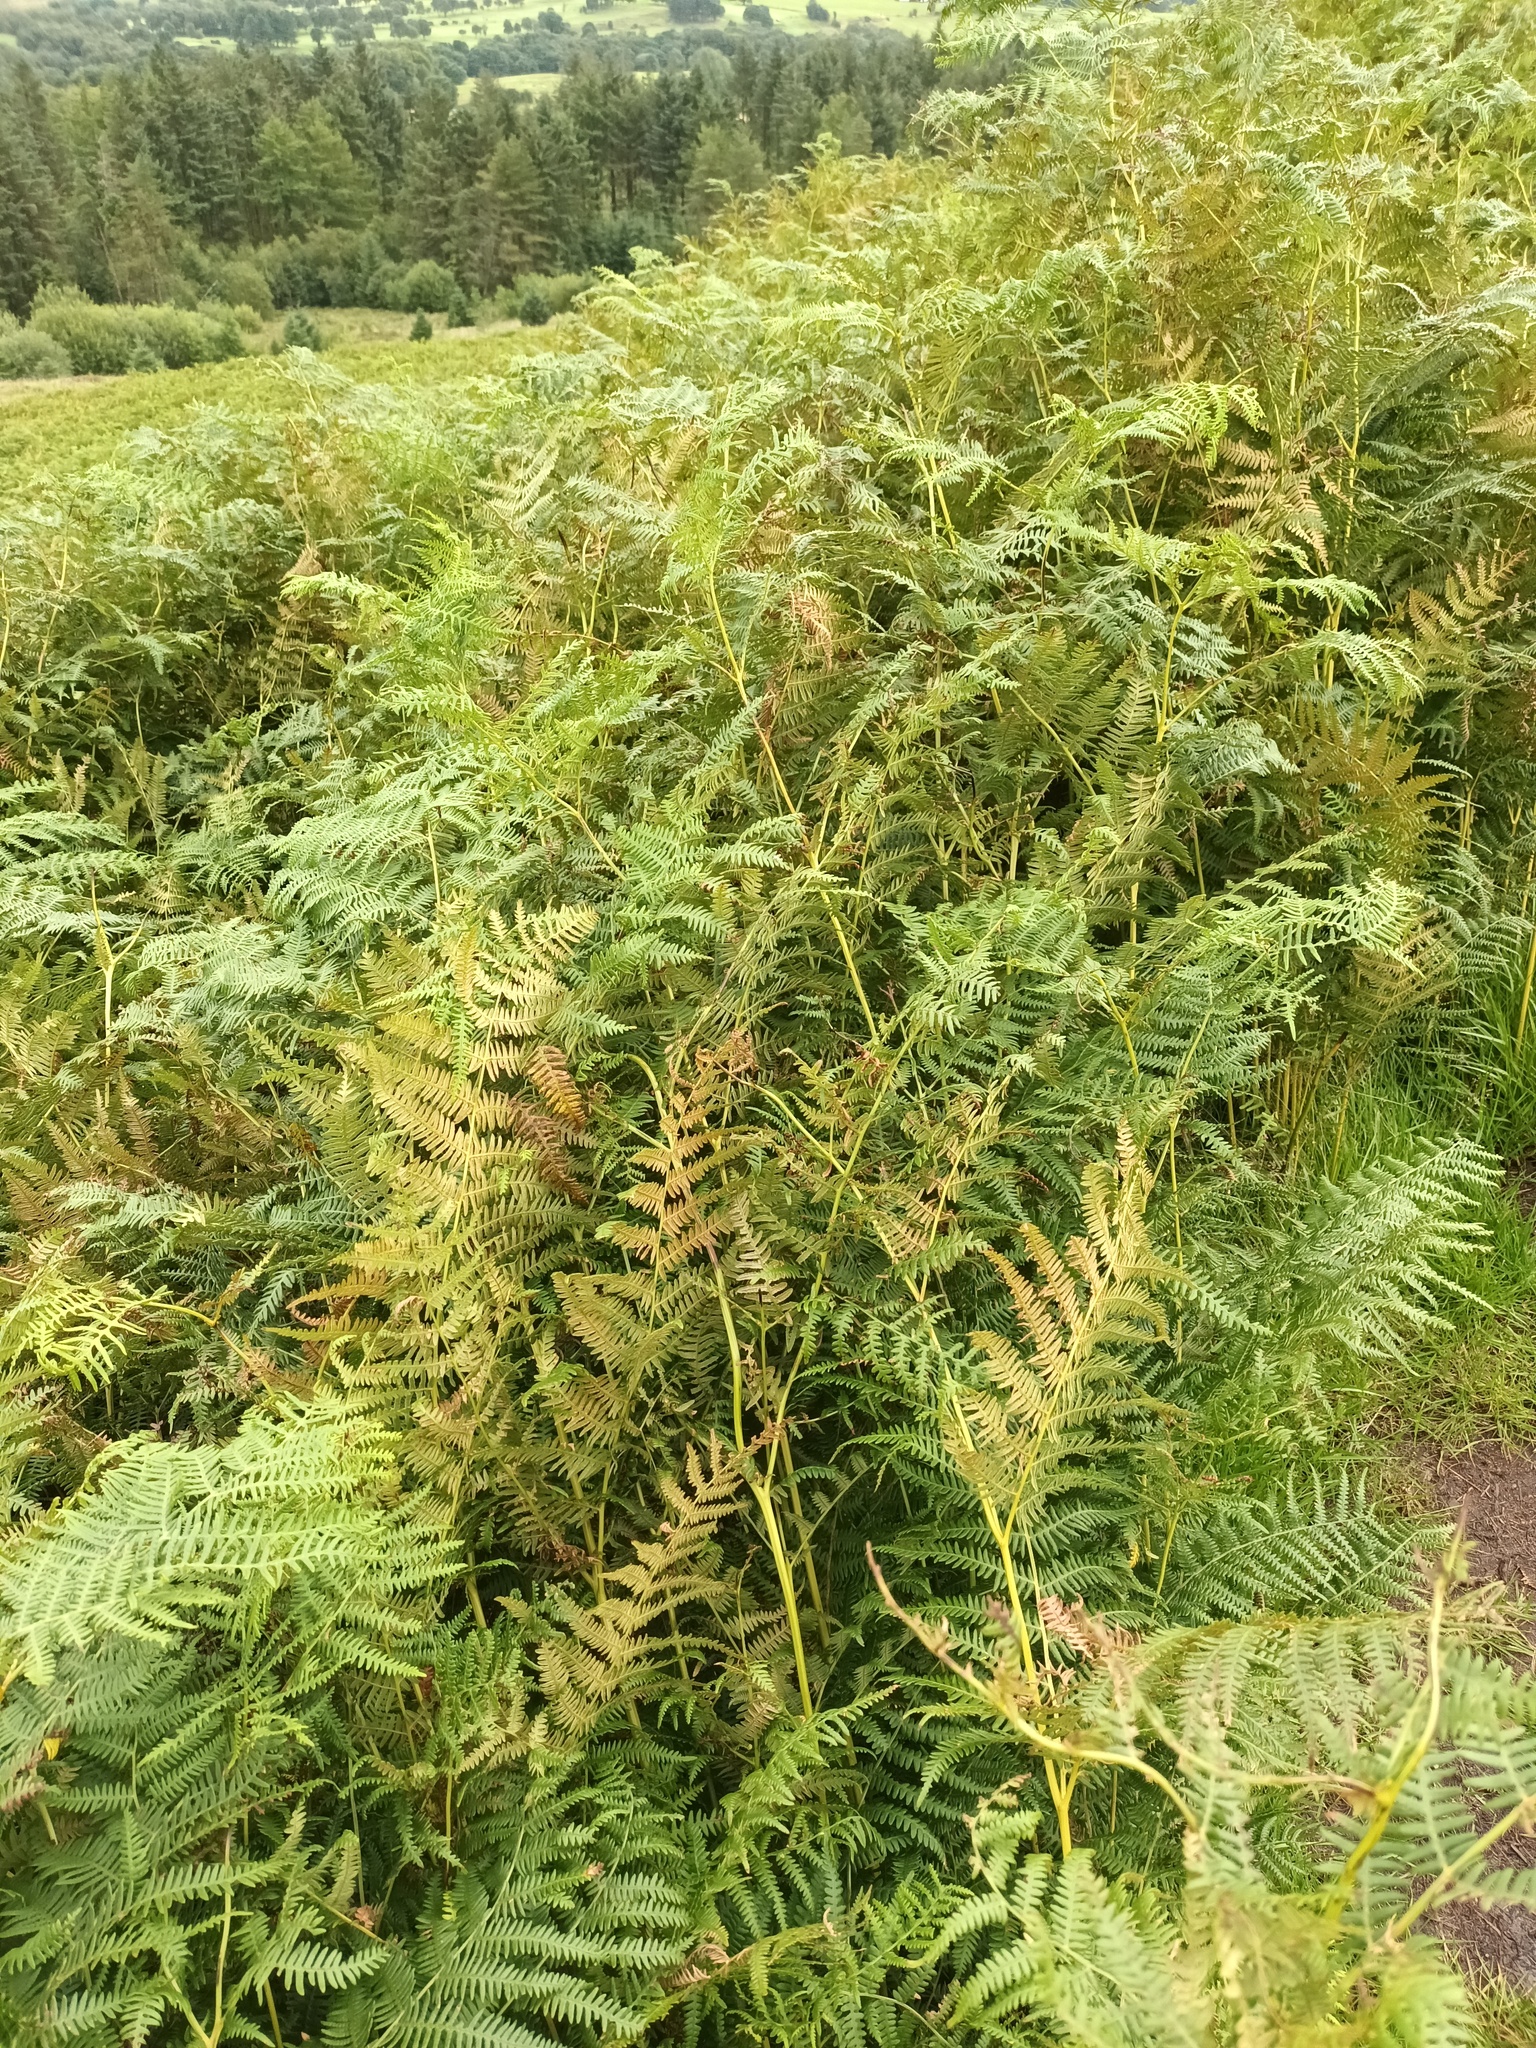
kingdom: Plantae
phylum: Tracheophyta
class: Polypodiopsida
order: Polypodiales
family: Dennstaedtiaceae
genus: Pteridium
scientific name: Pteridium aquilinum
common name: Bracken
